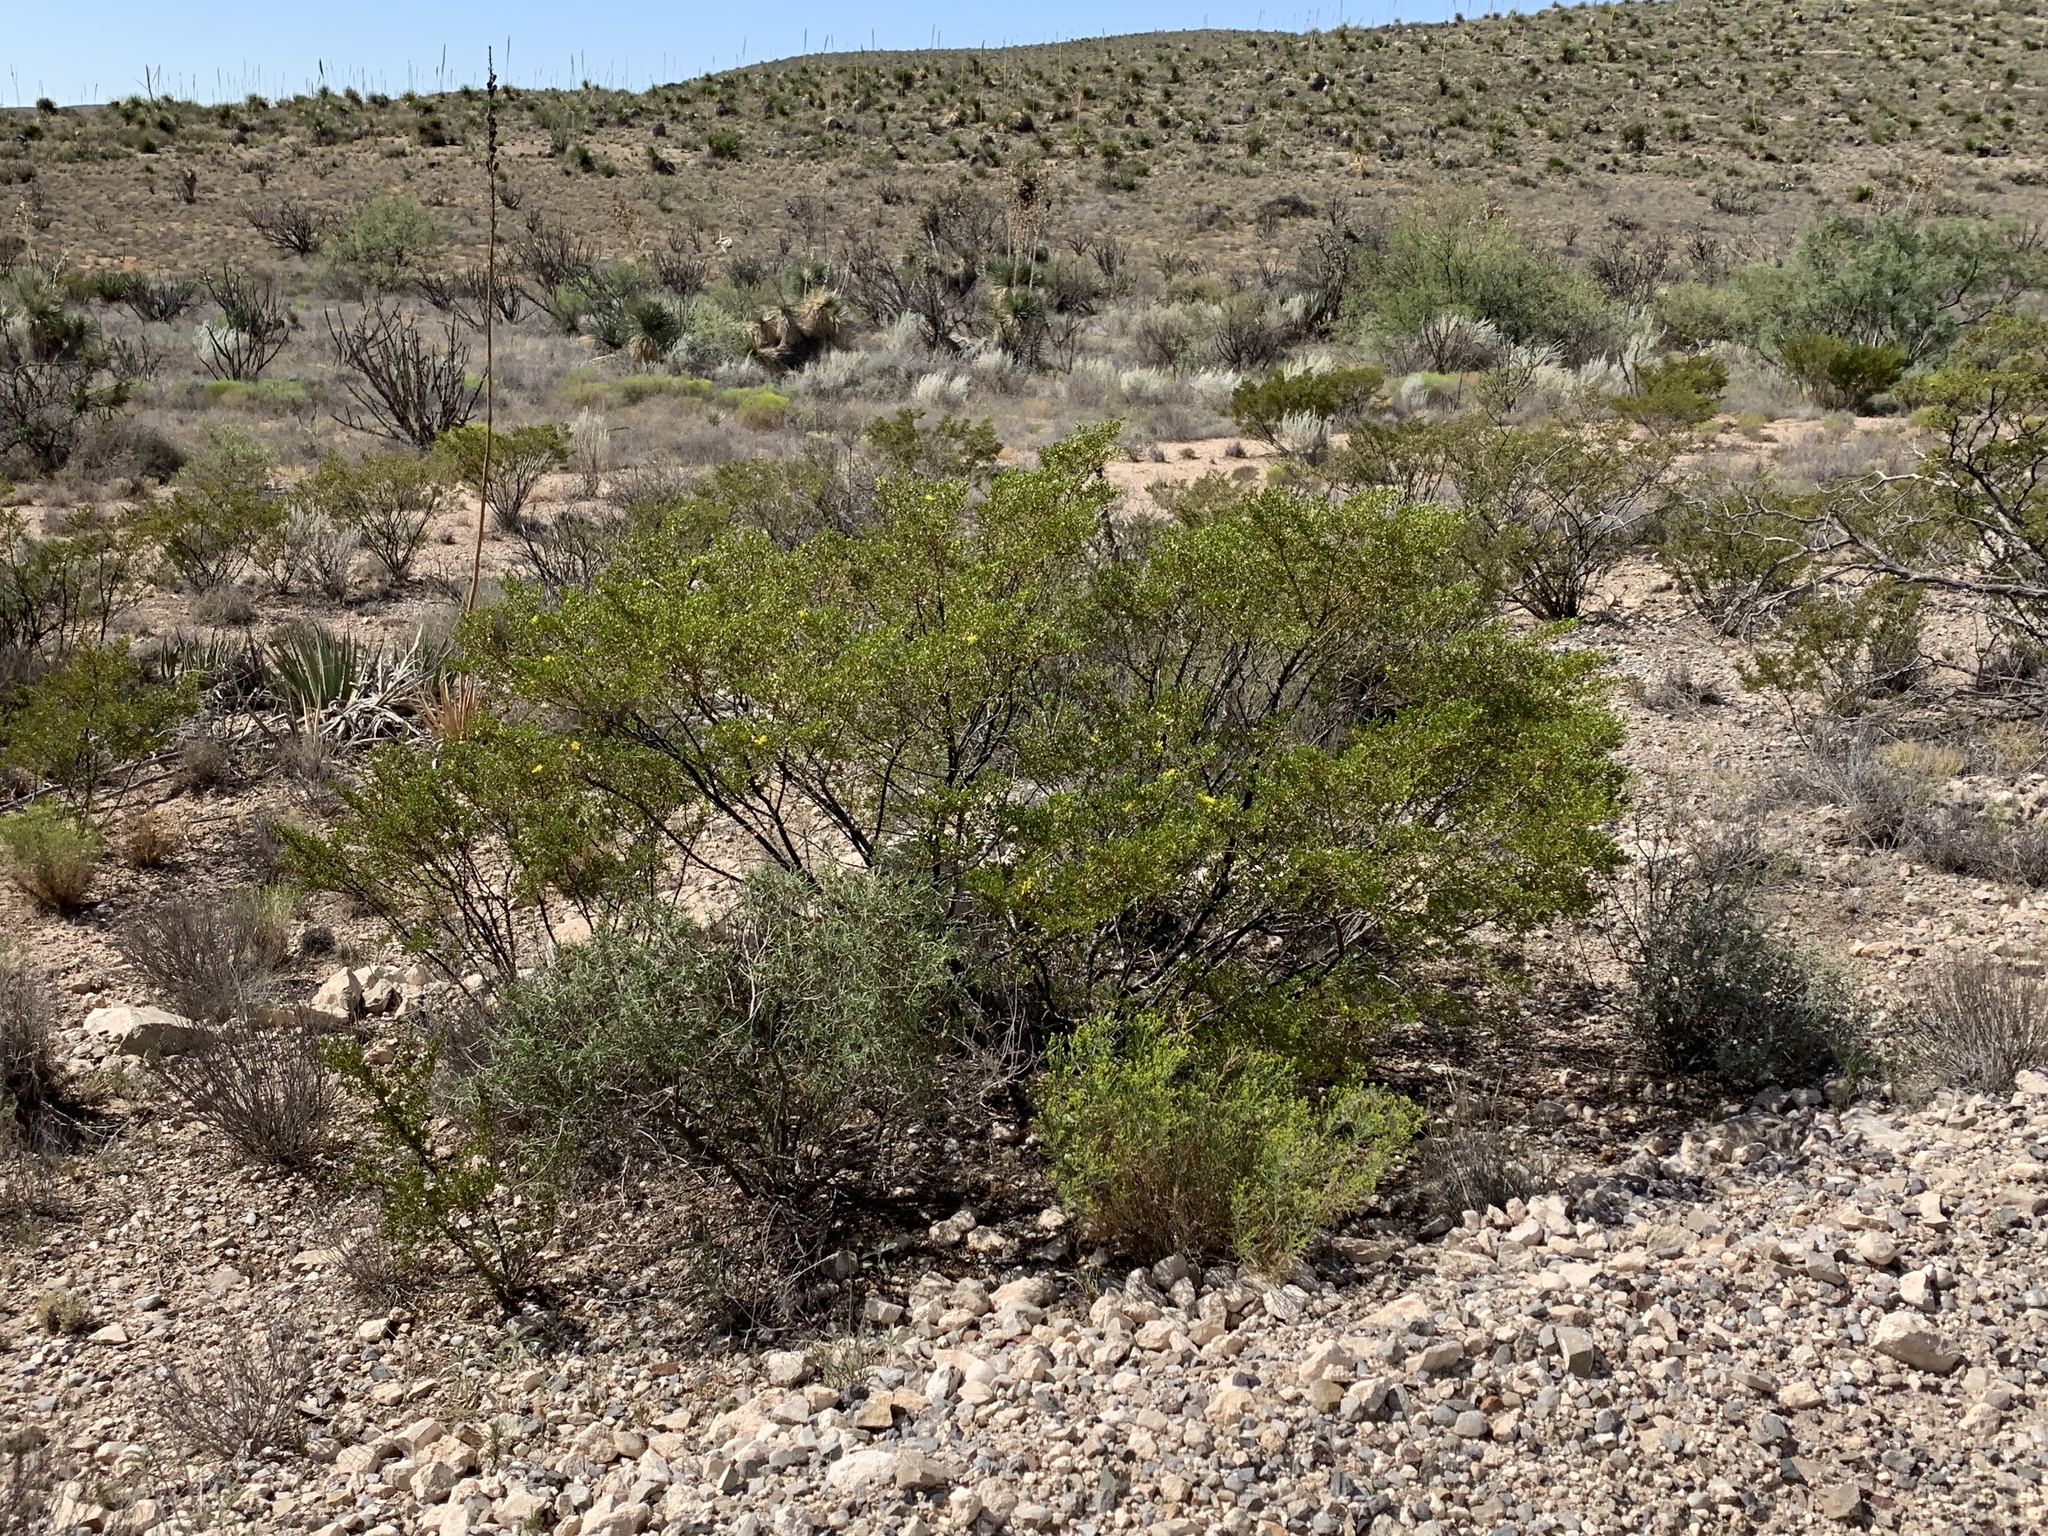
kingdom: Plantae
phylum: Tracheophyta
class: Magnoliopsida
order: Zygophyllales
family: Zygophyllaceae
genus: Larrea
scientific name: Larrea tridentata
